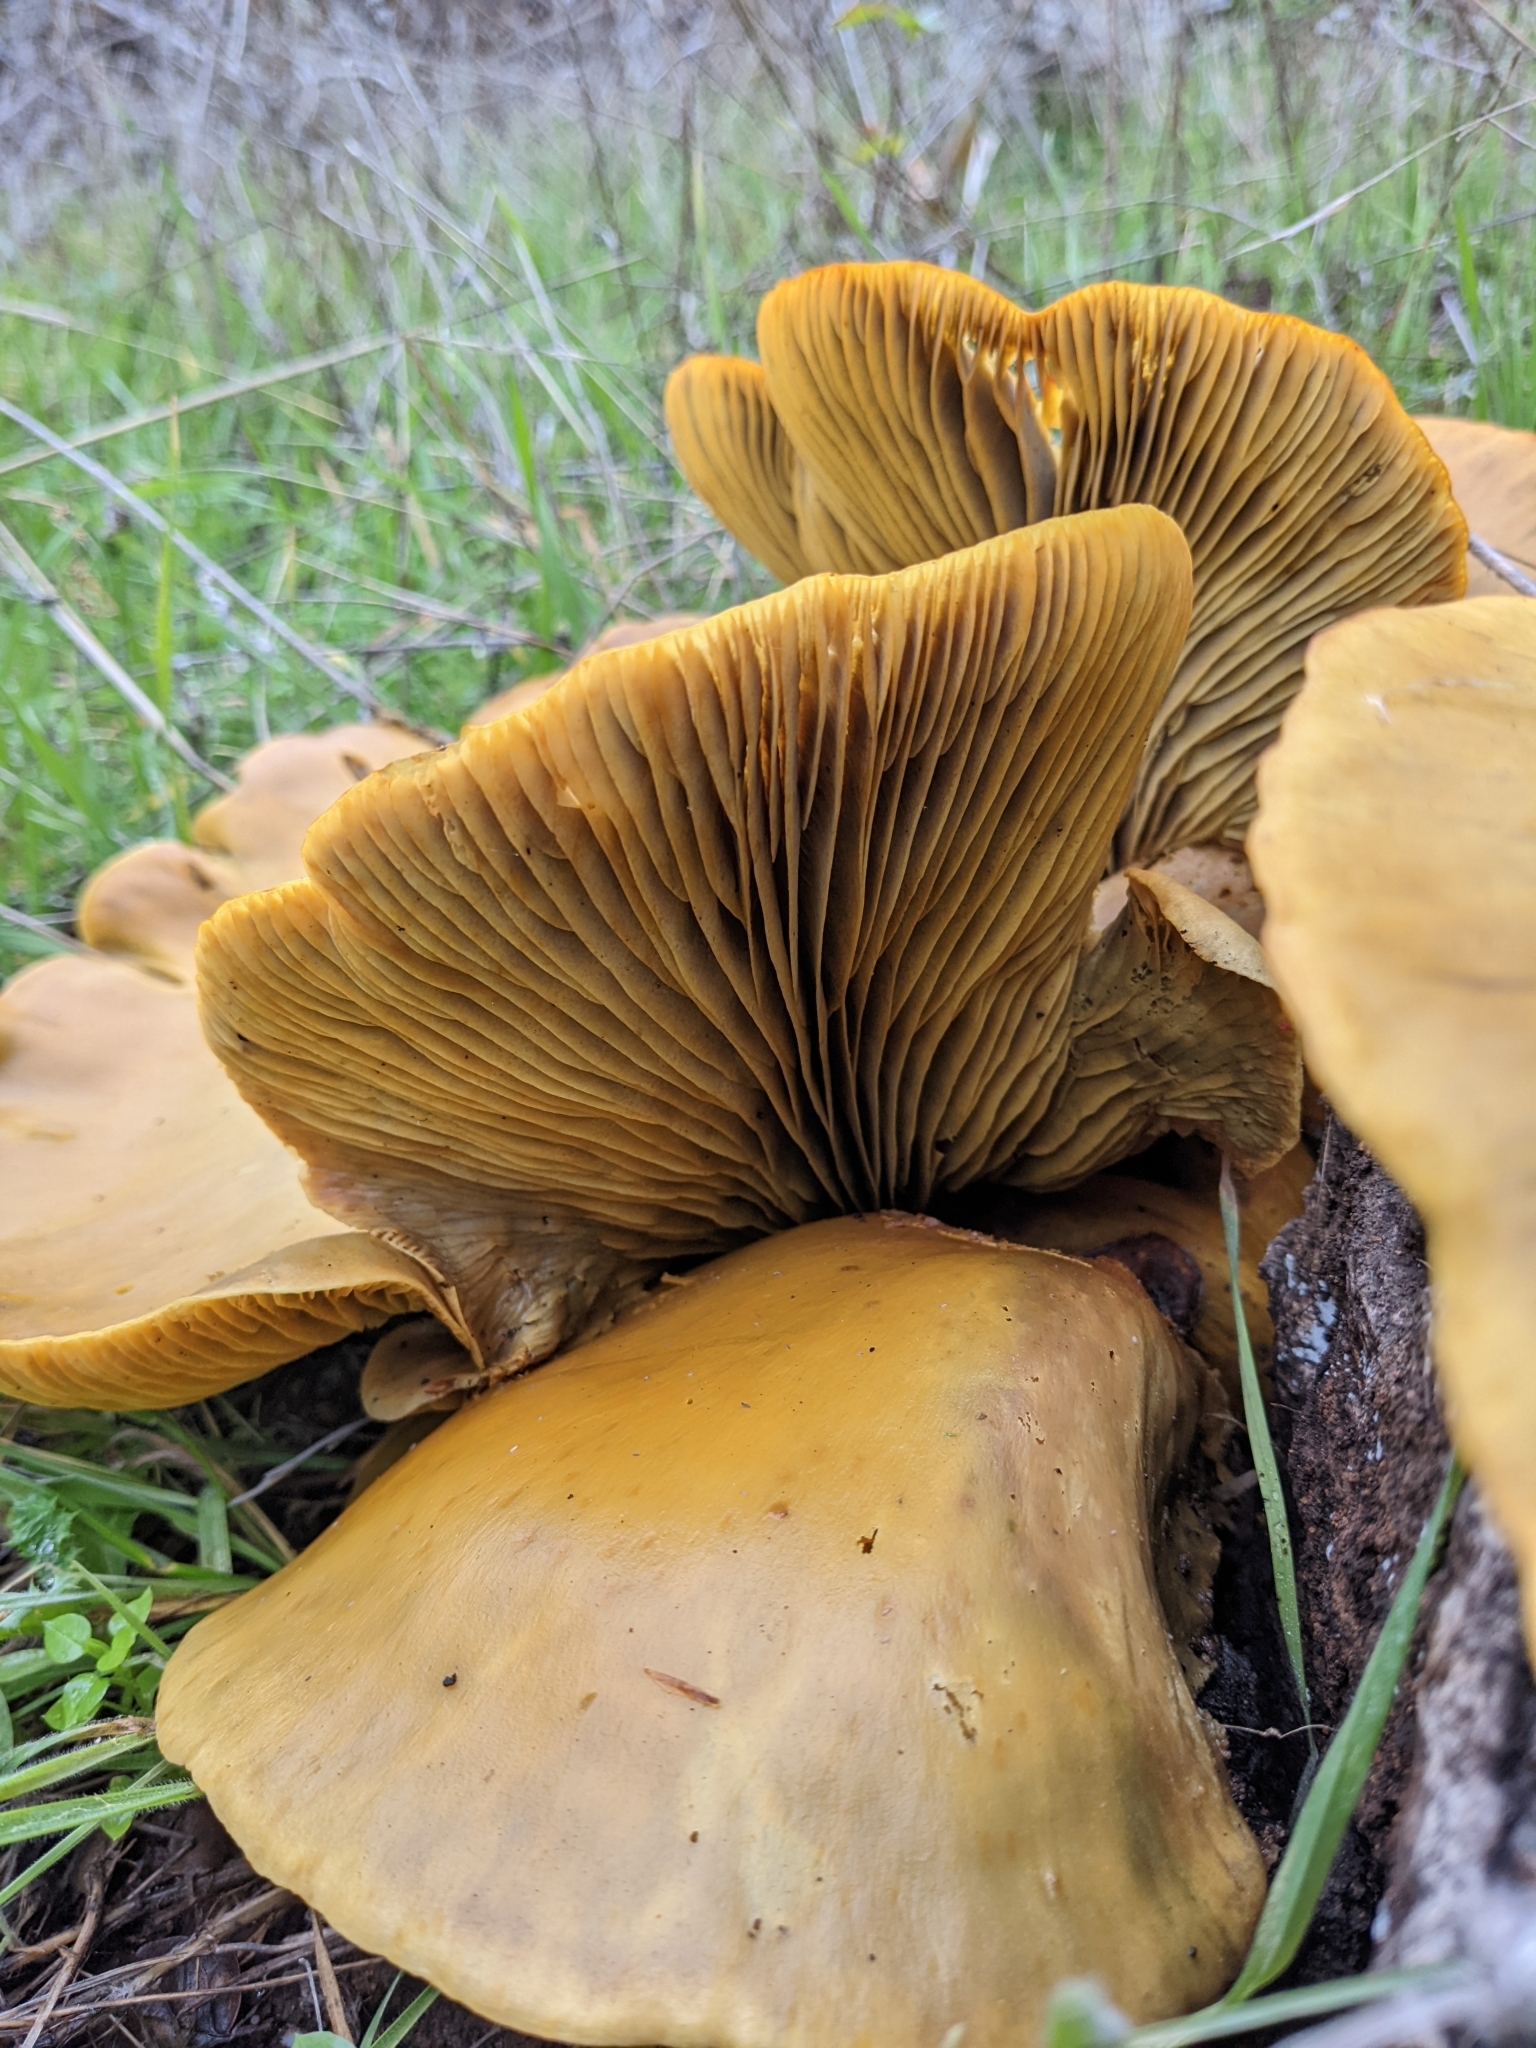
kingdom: Fungi
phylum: Basidiomycota
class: Agaricomycetes
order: Agaricales
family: Omphalotaceae
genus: Omphalotus
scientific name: Omphalotus olivascens
